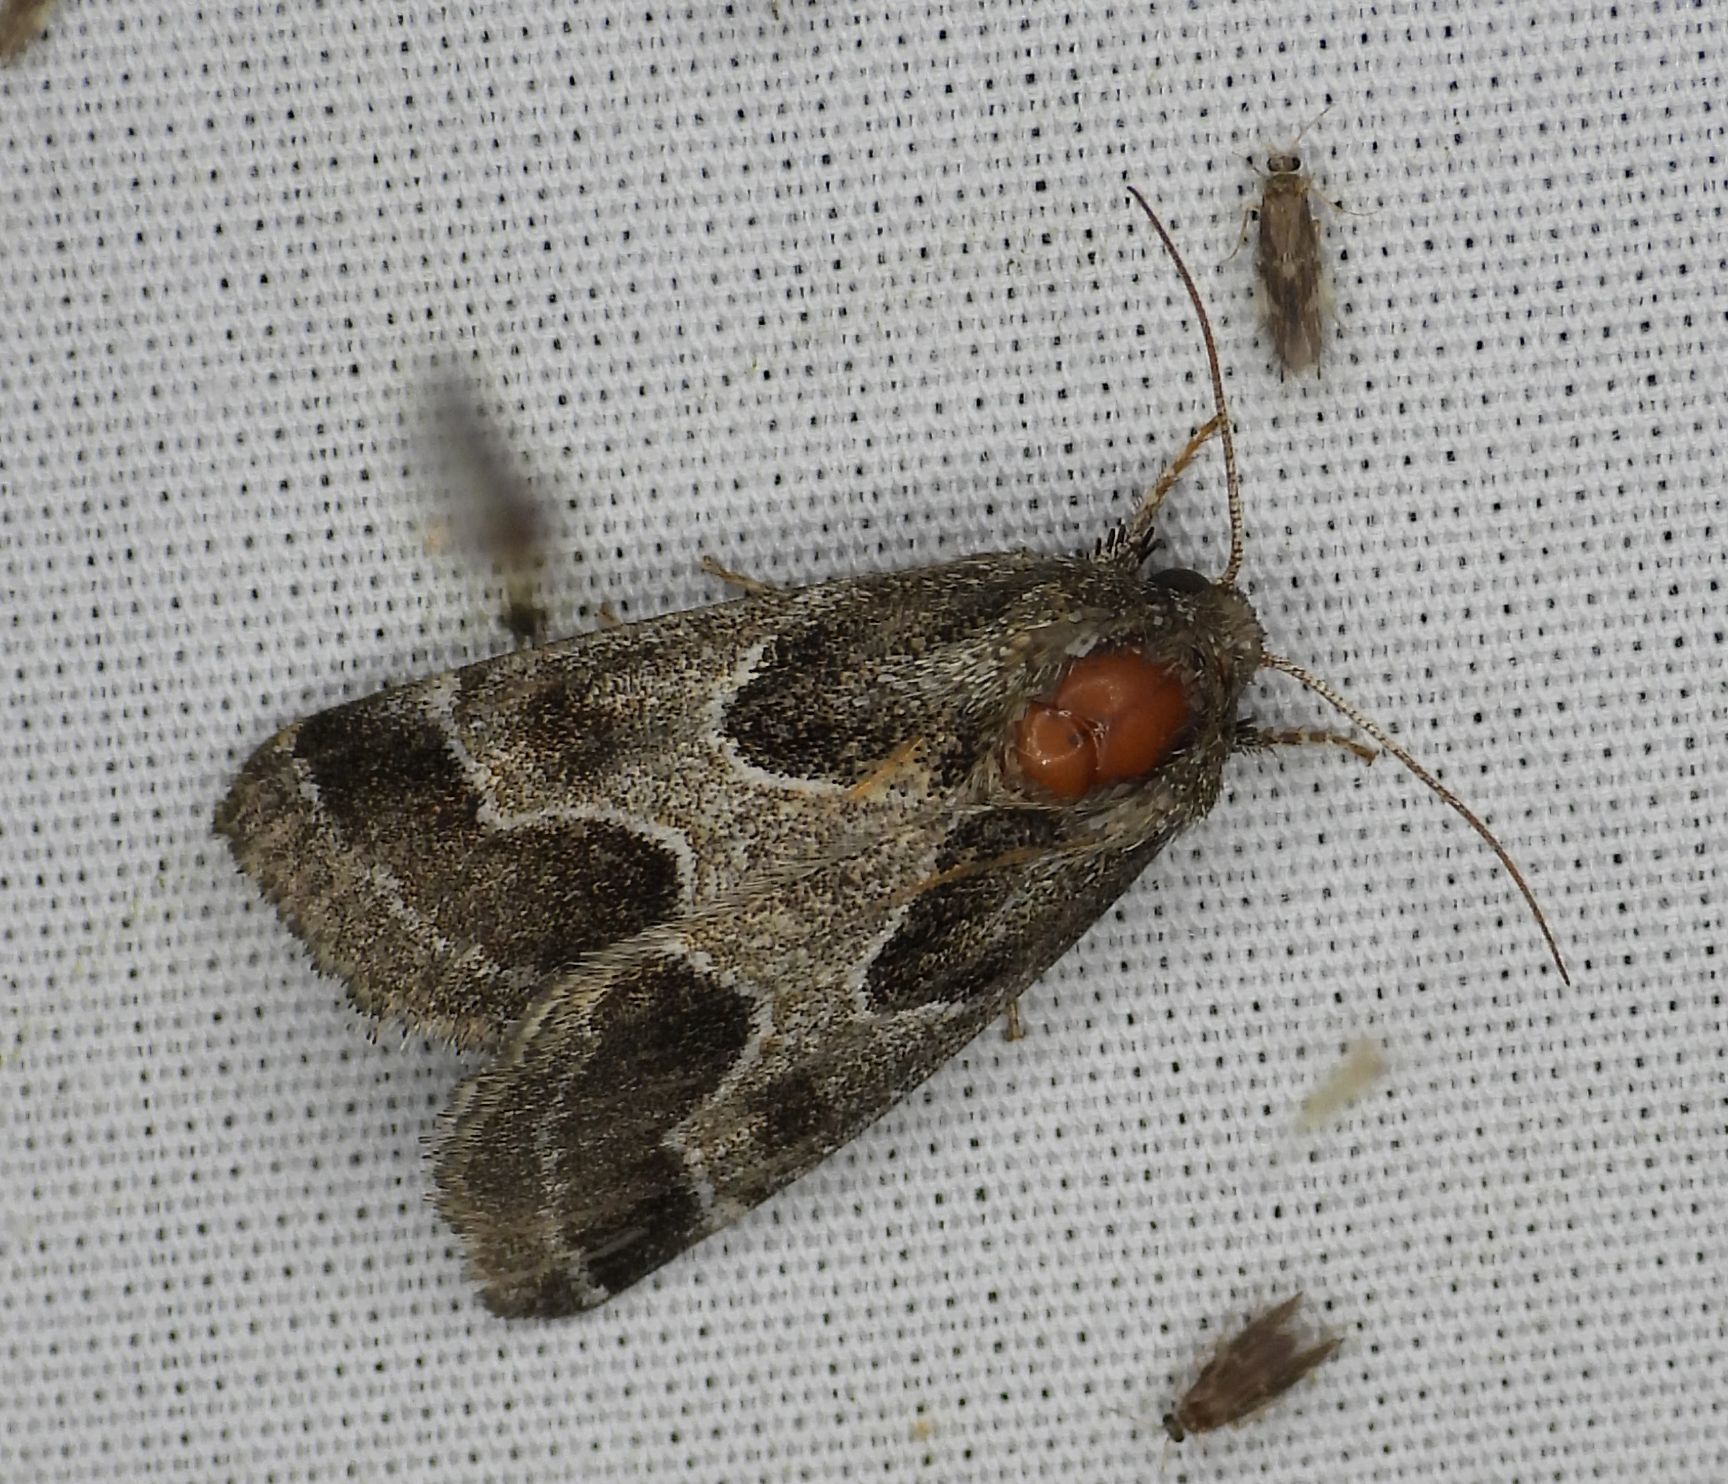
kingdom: Animalia
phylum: Arthropoda
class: Insecta
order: Lepidoptera
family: Noctuidae
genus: Schinia
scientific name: Schinia rivulosa
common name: Scarce meal-moth
